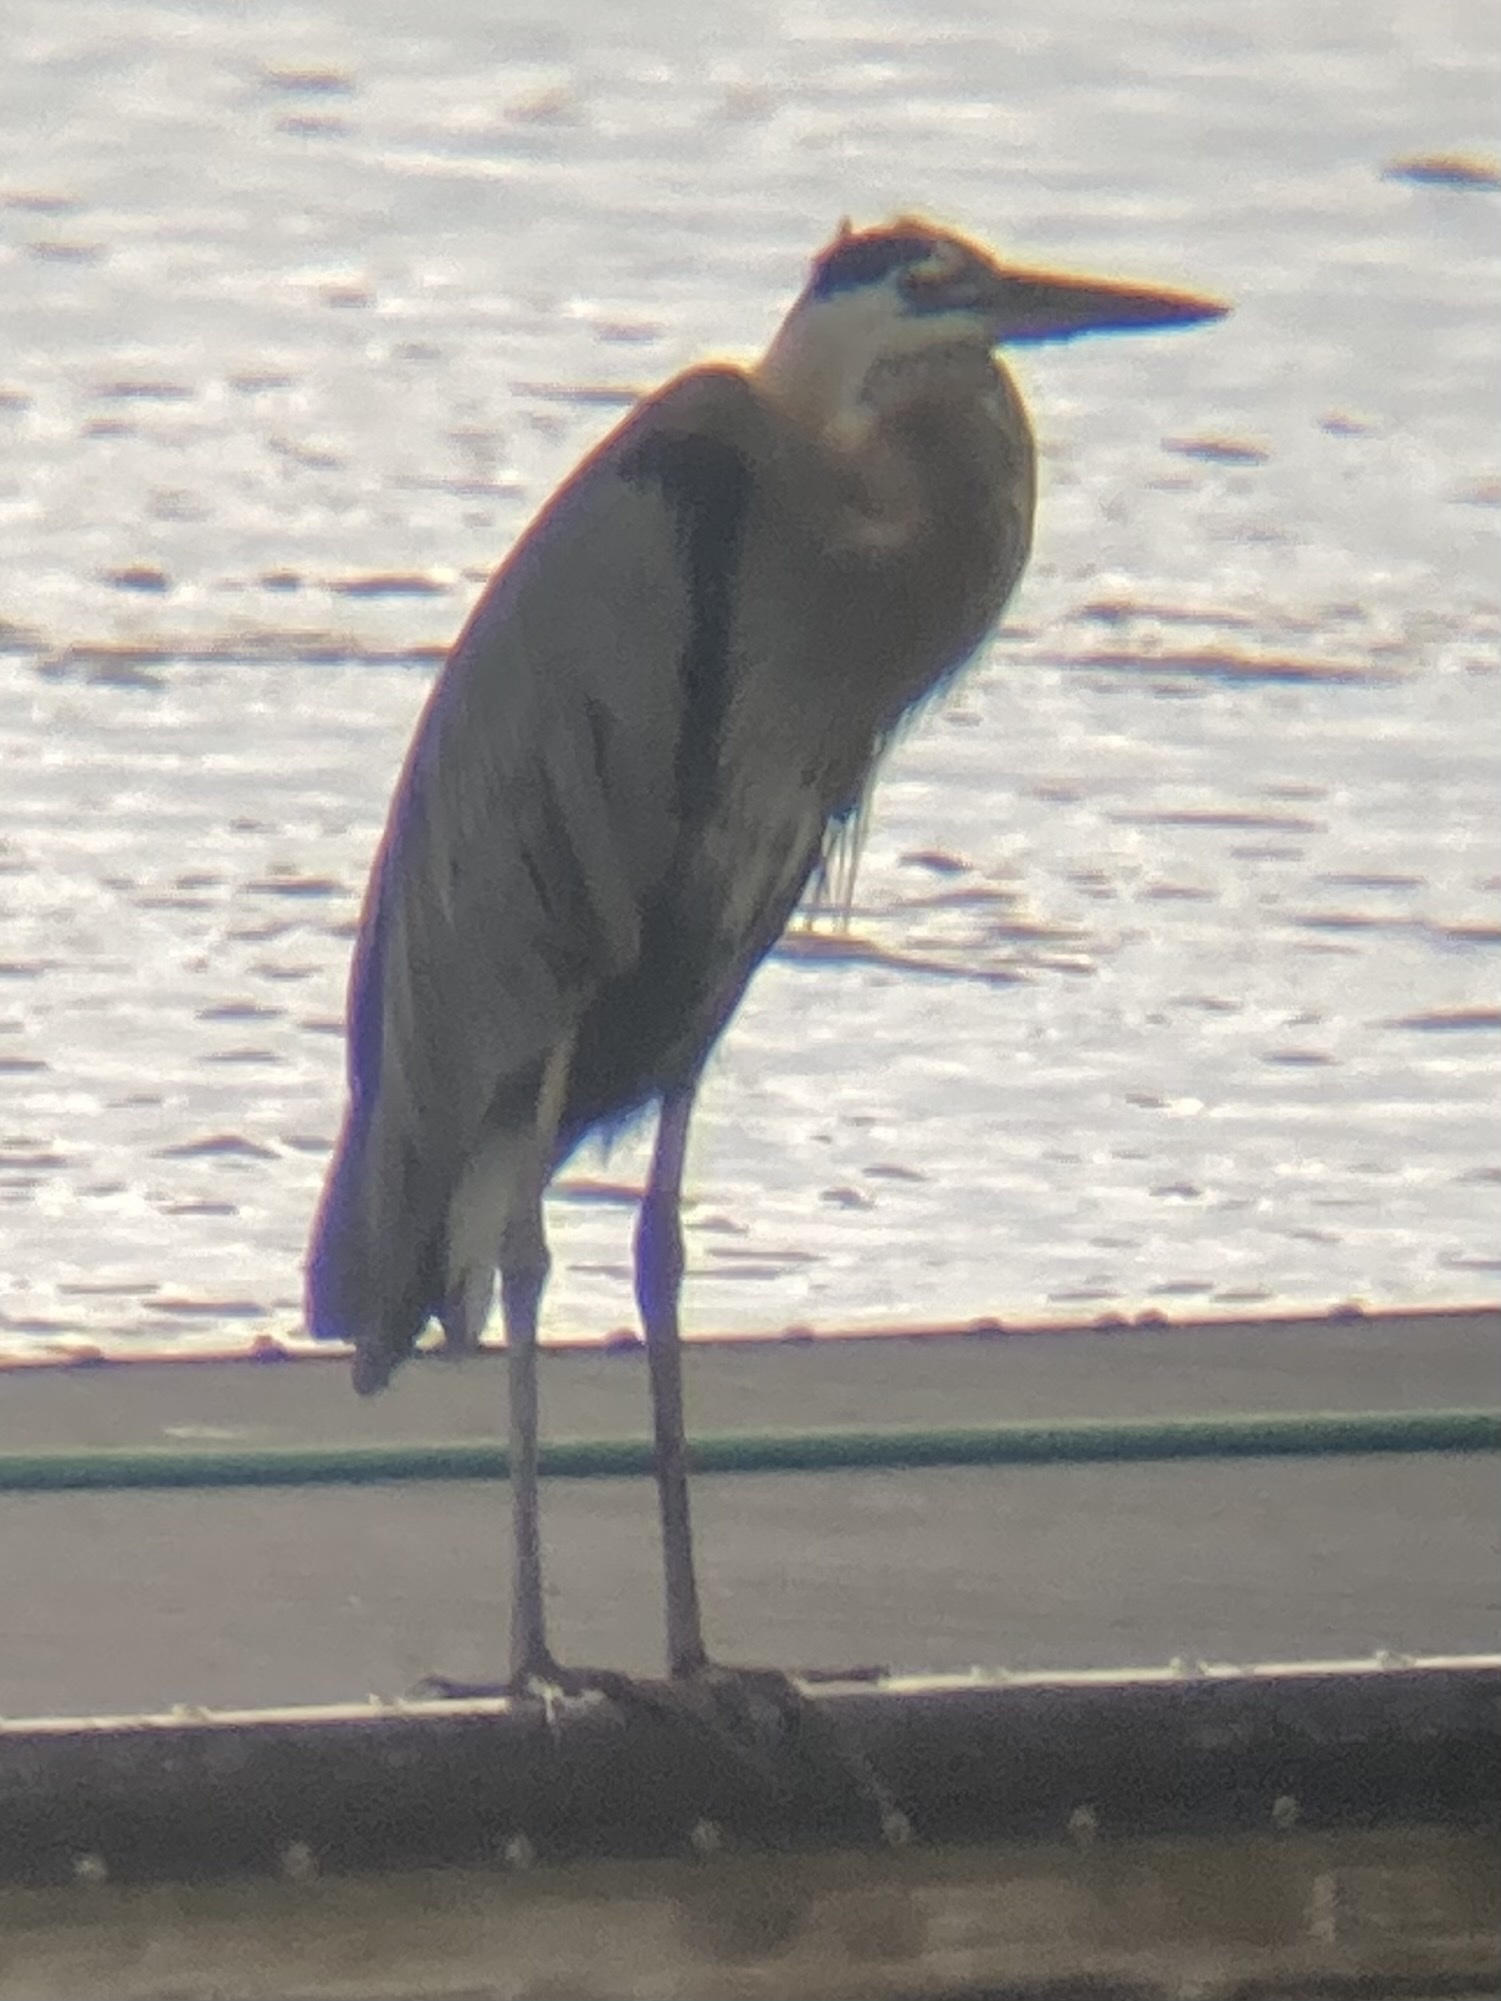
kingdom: Animalia
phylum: Chordata
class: Aves
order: Pelecaniformes
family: Ardeidae
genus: Ardea
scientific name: Ardea herodias
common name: Great blue heron
